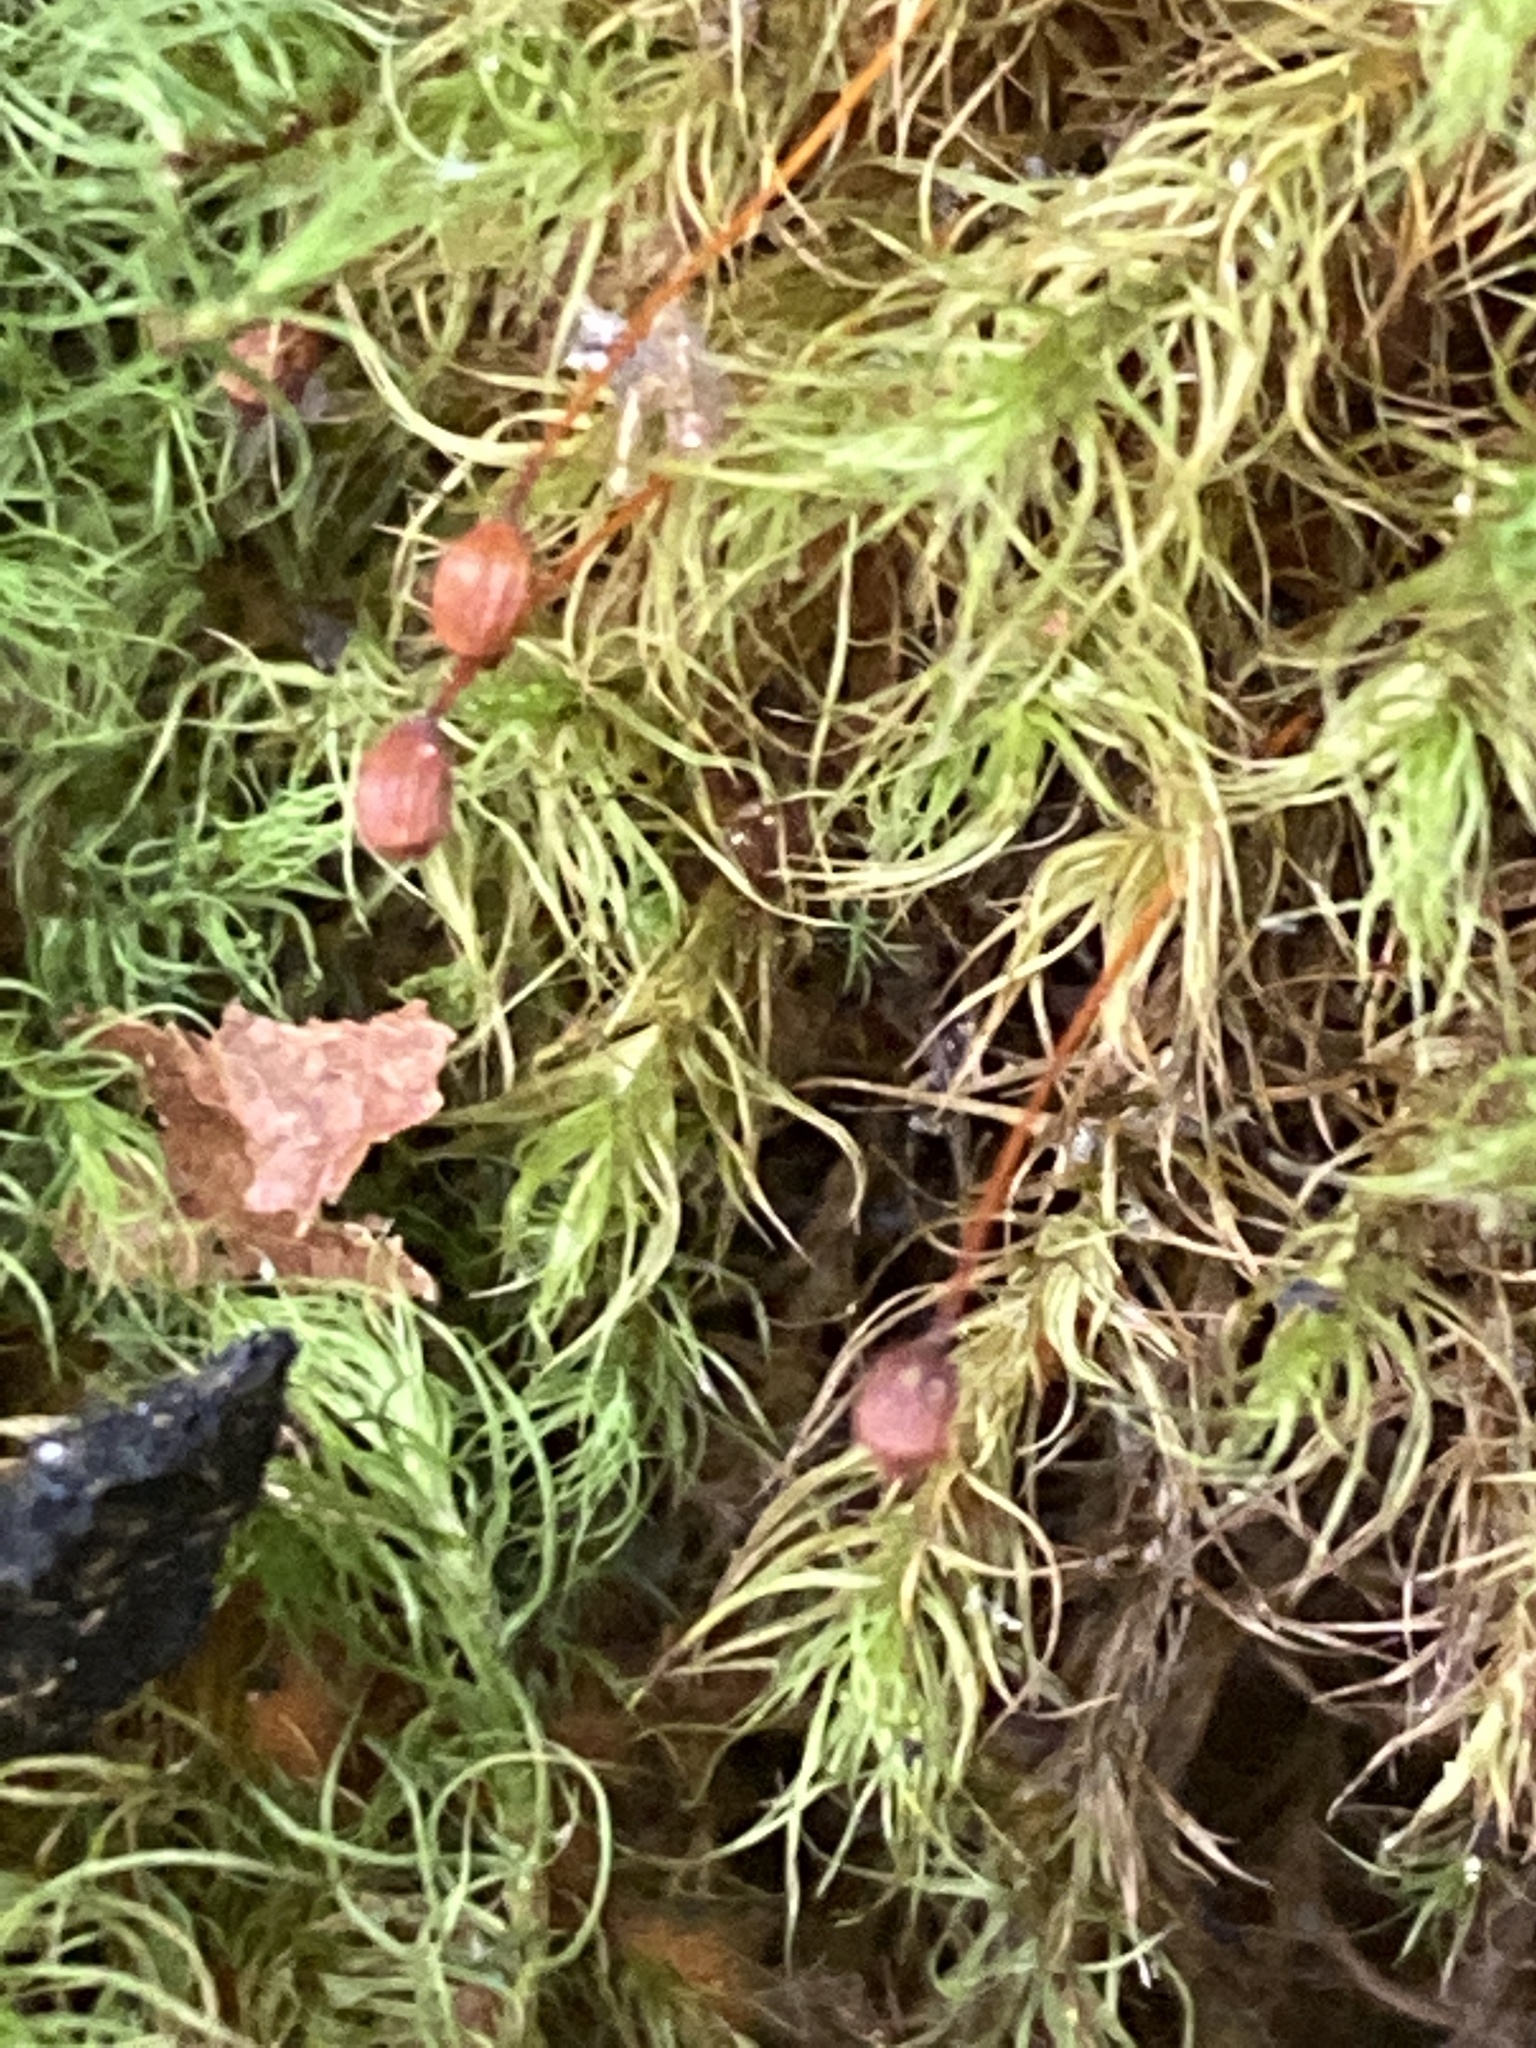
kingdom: Plantae
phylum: Bryophyta
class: Bryopsida
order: Bartramiales
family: Bartramiaceae
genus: Bartramia
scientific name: Bartramia ithyphylla
